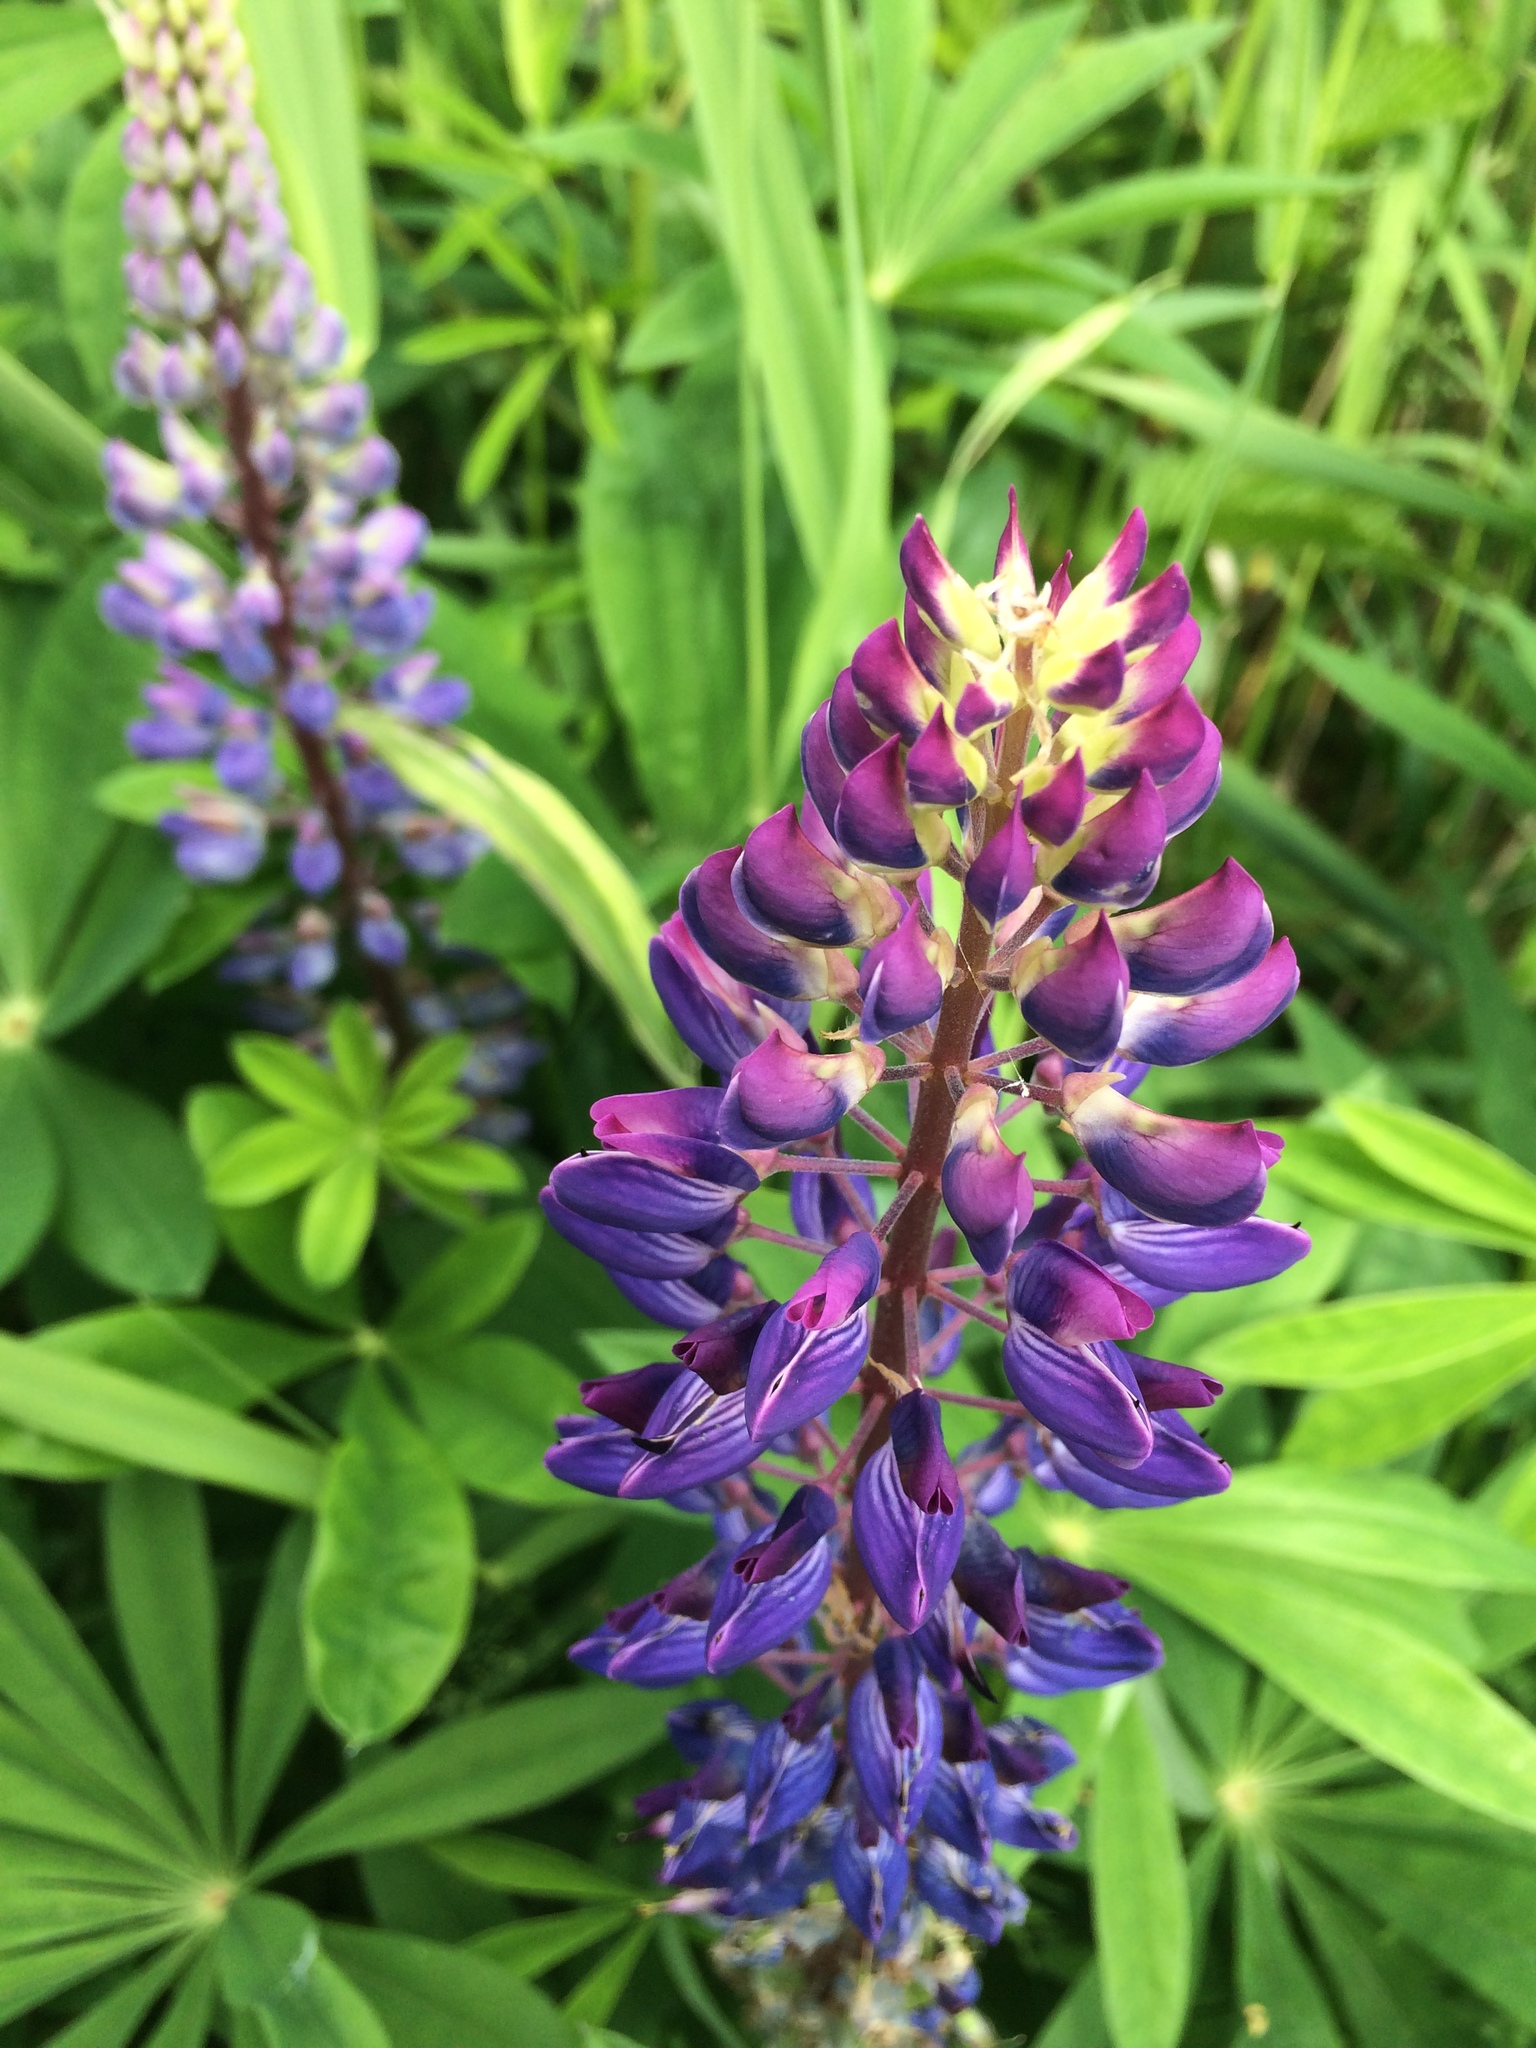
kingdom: Plantae
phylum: Tracheophyta
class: Magnoliopsida
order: Fabales
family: Fabaceae
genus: Lupinus
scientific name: Lupinus polyphyllus
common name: Garden lupin
